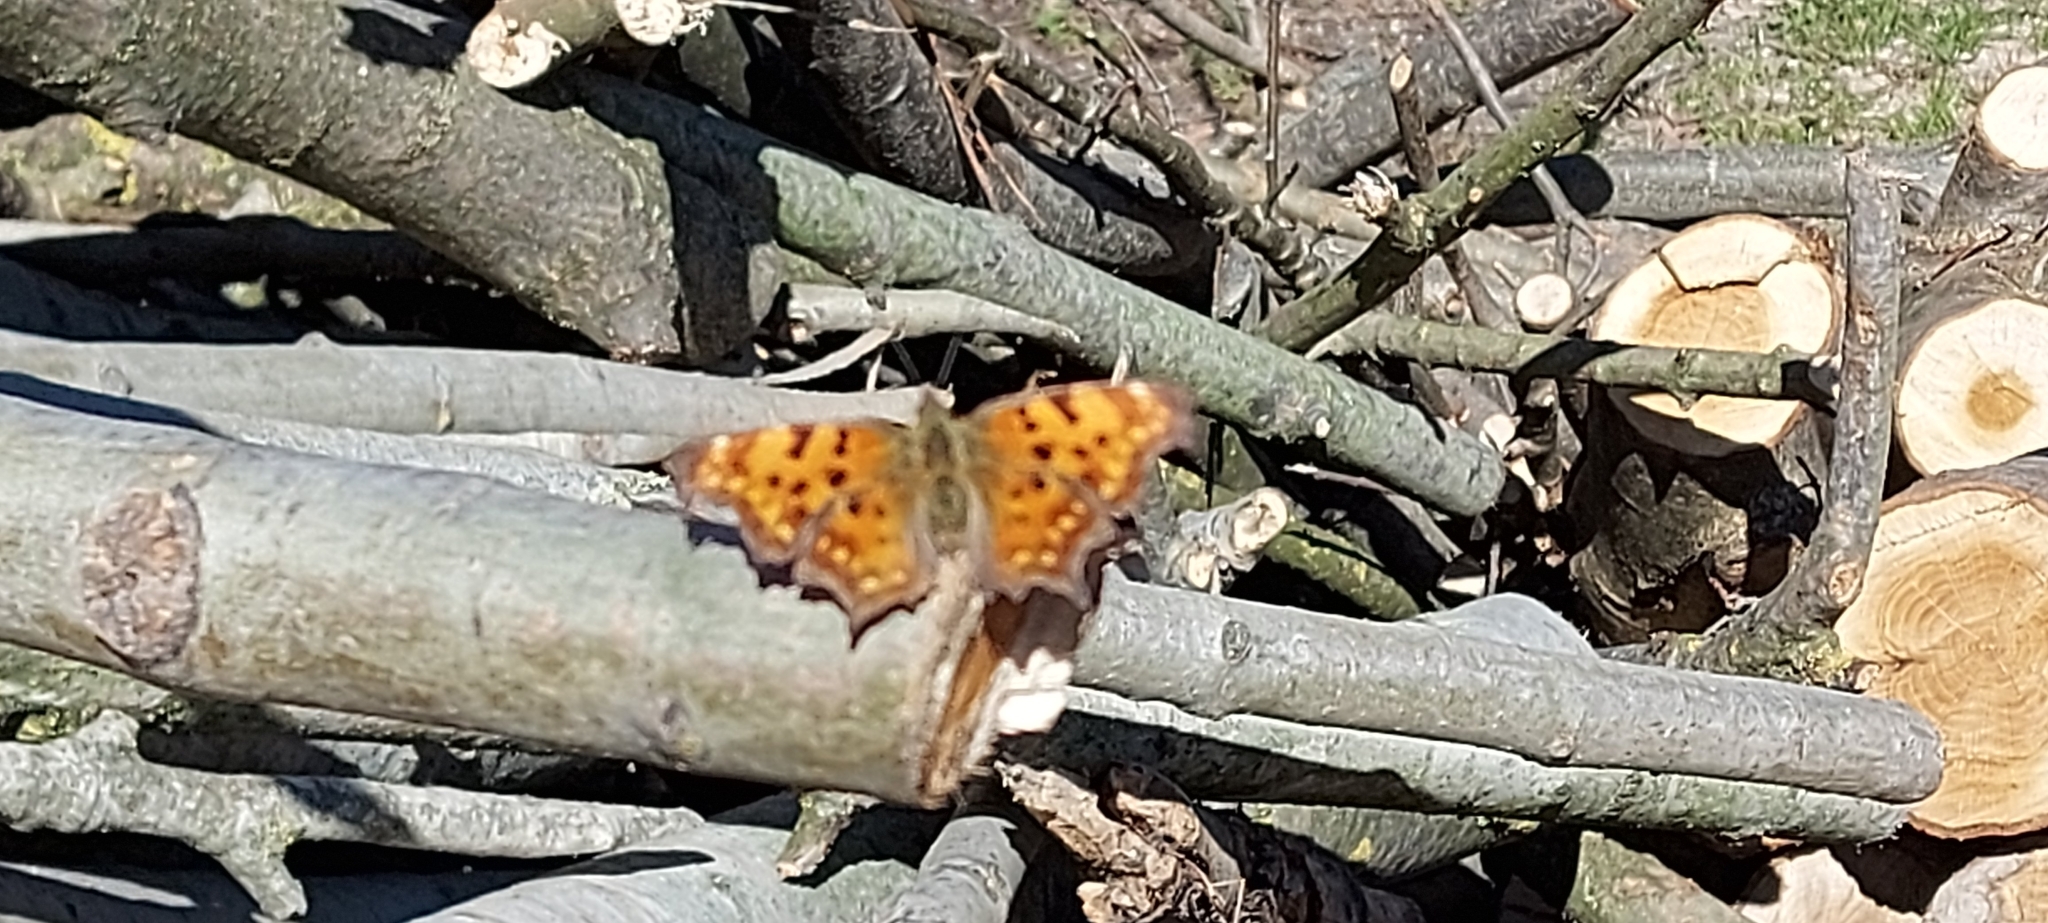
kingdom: Animalia
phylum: Arthropoda
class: Insecta
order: Lepidoptera
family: Nymphalidae
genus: Polygonia
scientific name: Polygonia c-album
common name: Comma
